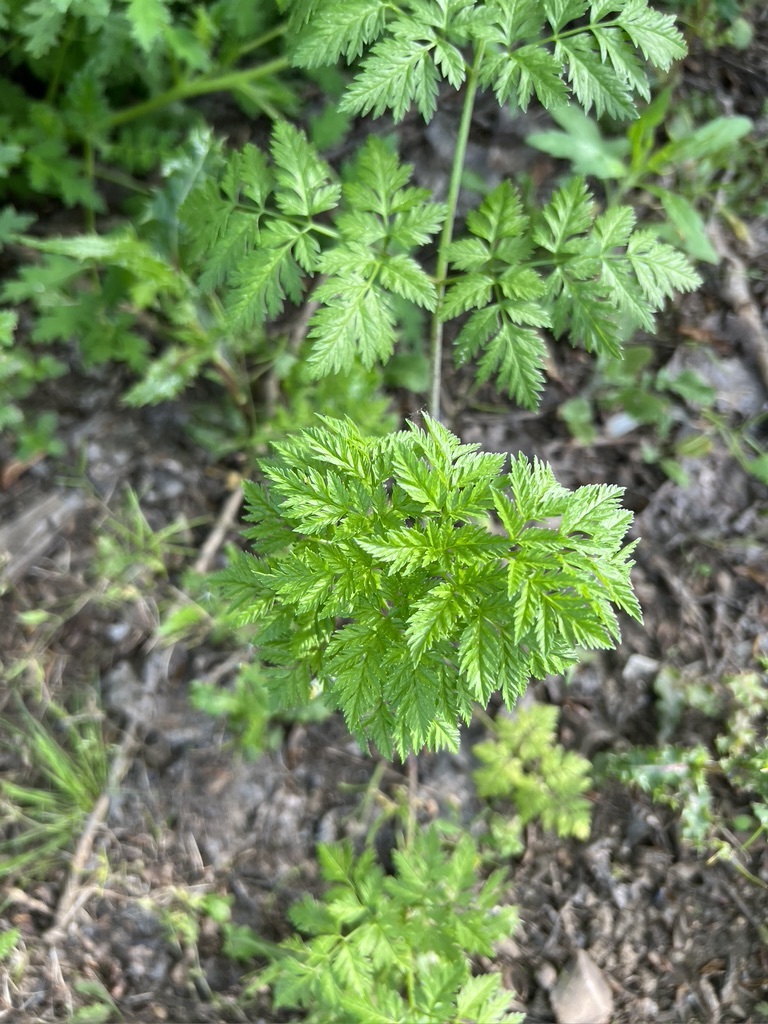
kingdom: Plantae
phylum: Tracheophyta
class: Magnoliopsida
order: Apiales
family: Apiaceae
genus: Conium
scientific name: Conium maculatum
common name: Hemlock
